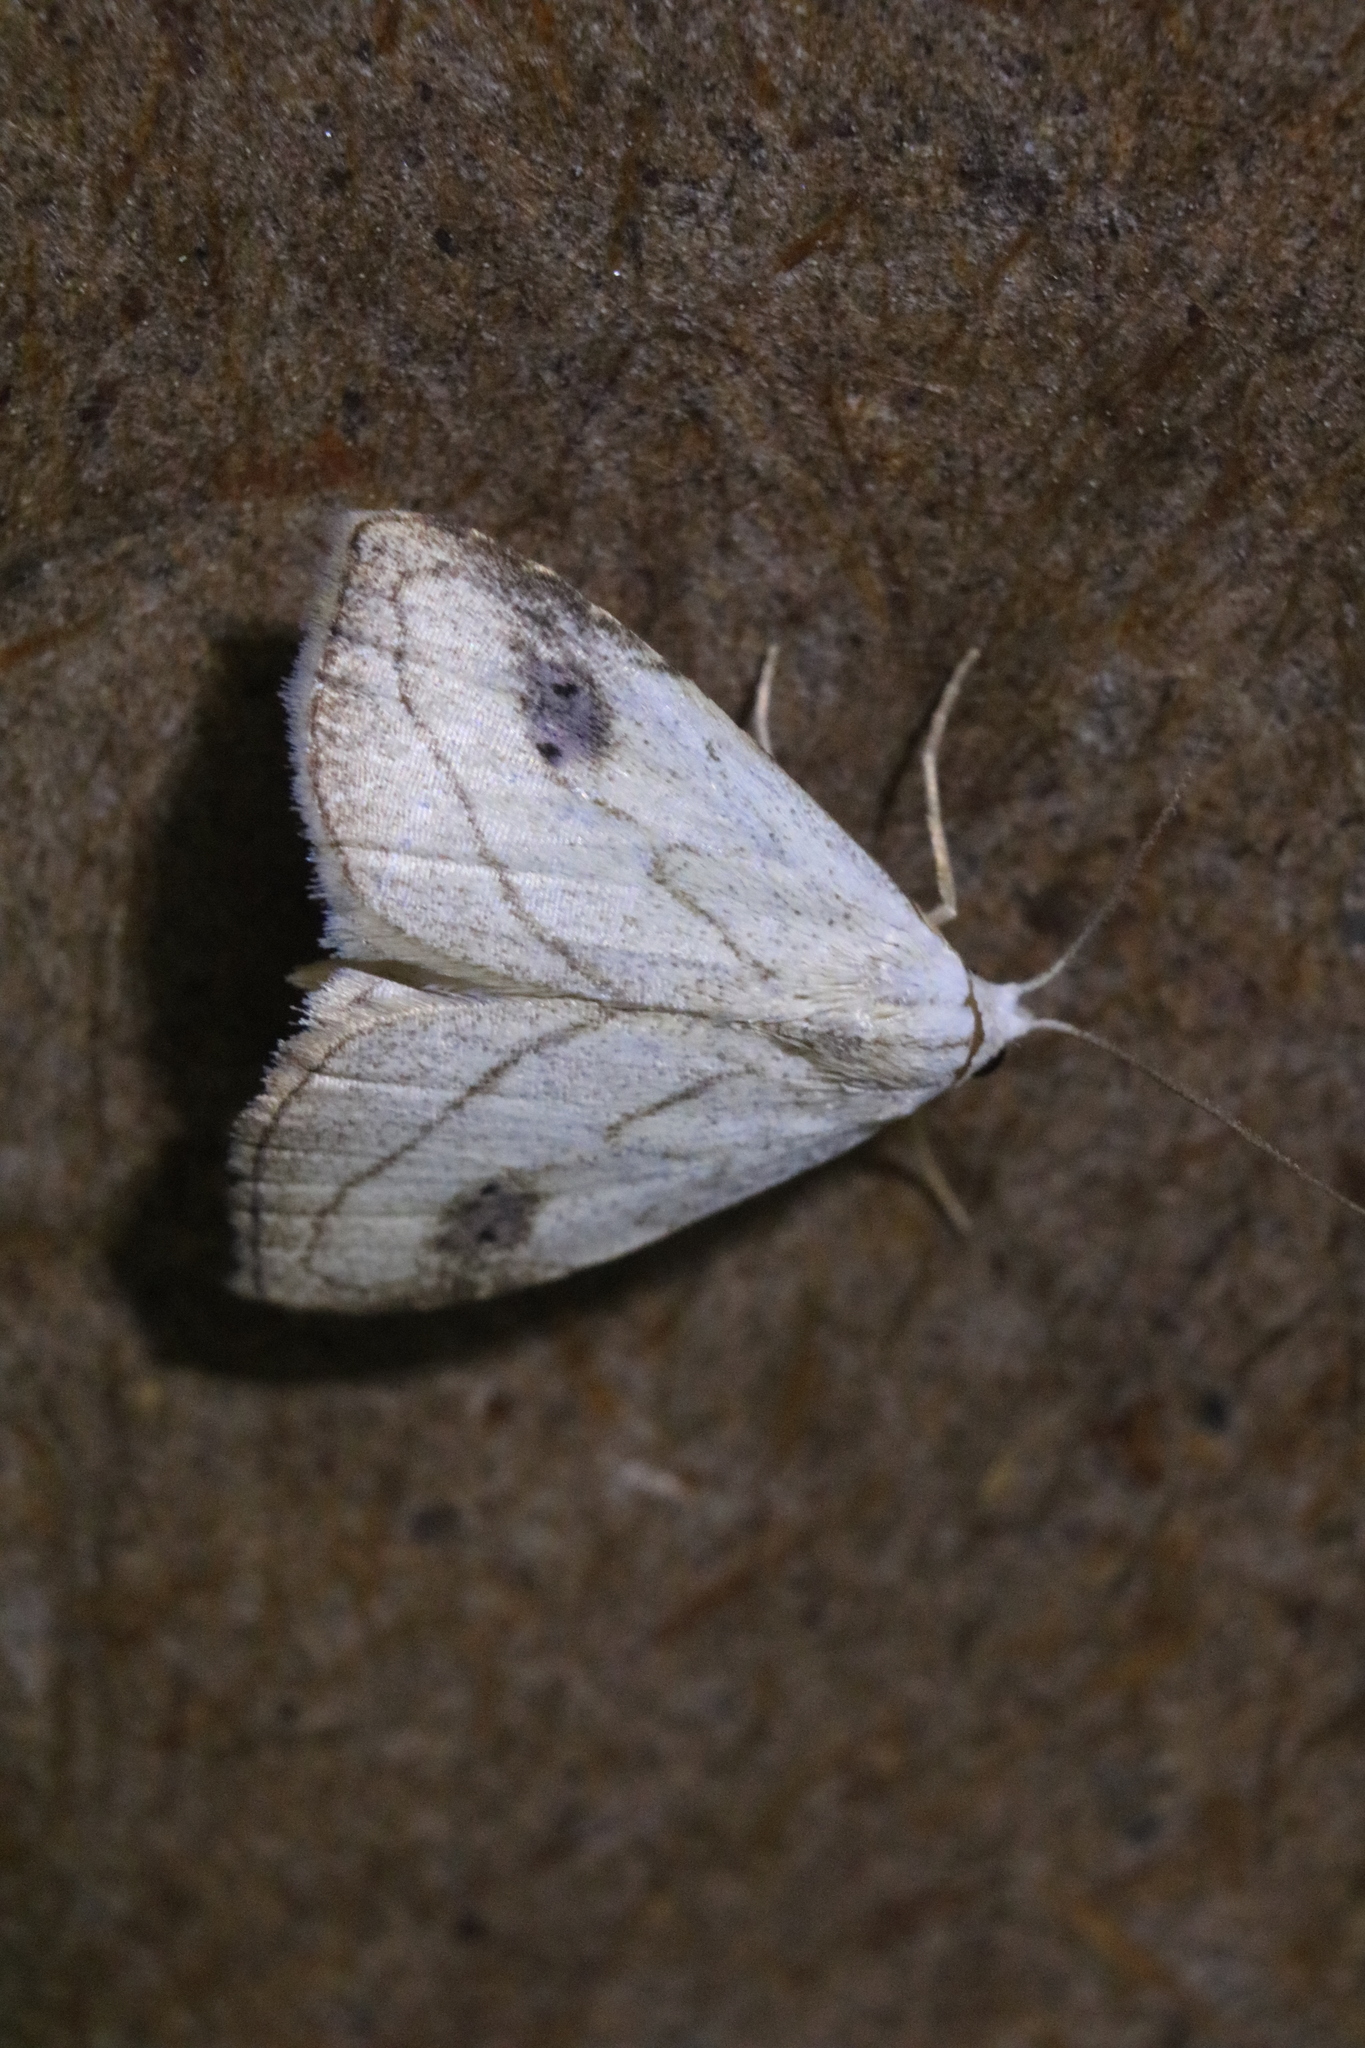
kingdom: Animalia
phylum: Arthropoda
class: Insecta
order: Lepidoptera
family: Erebidae
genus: Rivula
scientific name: Rivula propinqualis
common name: Spotted grass moth
